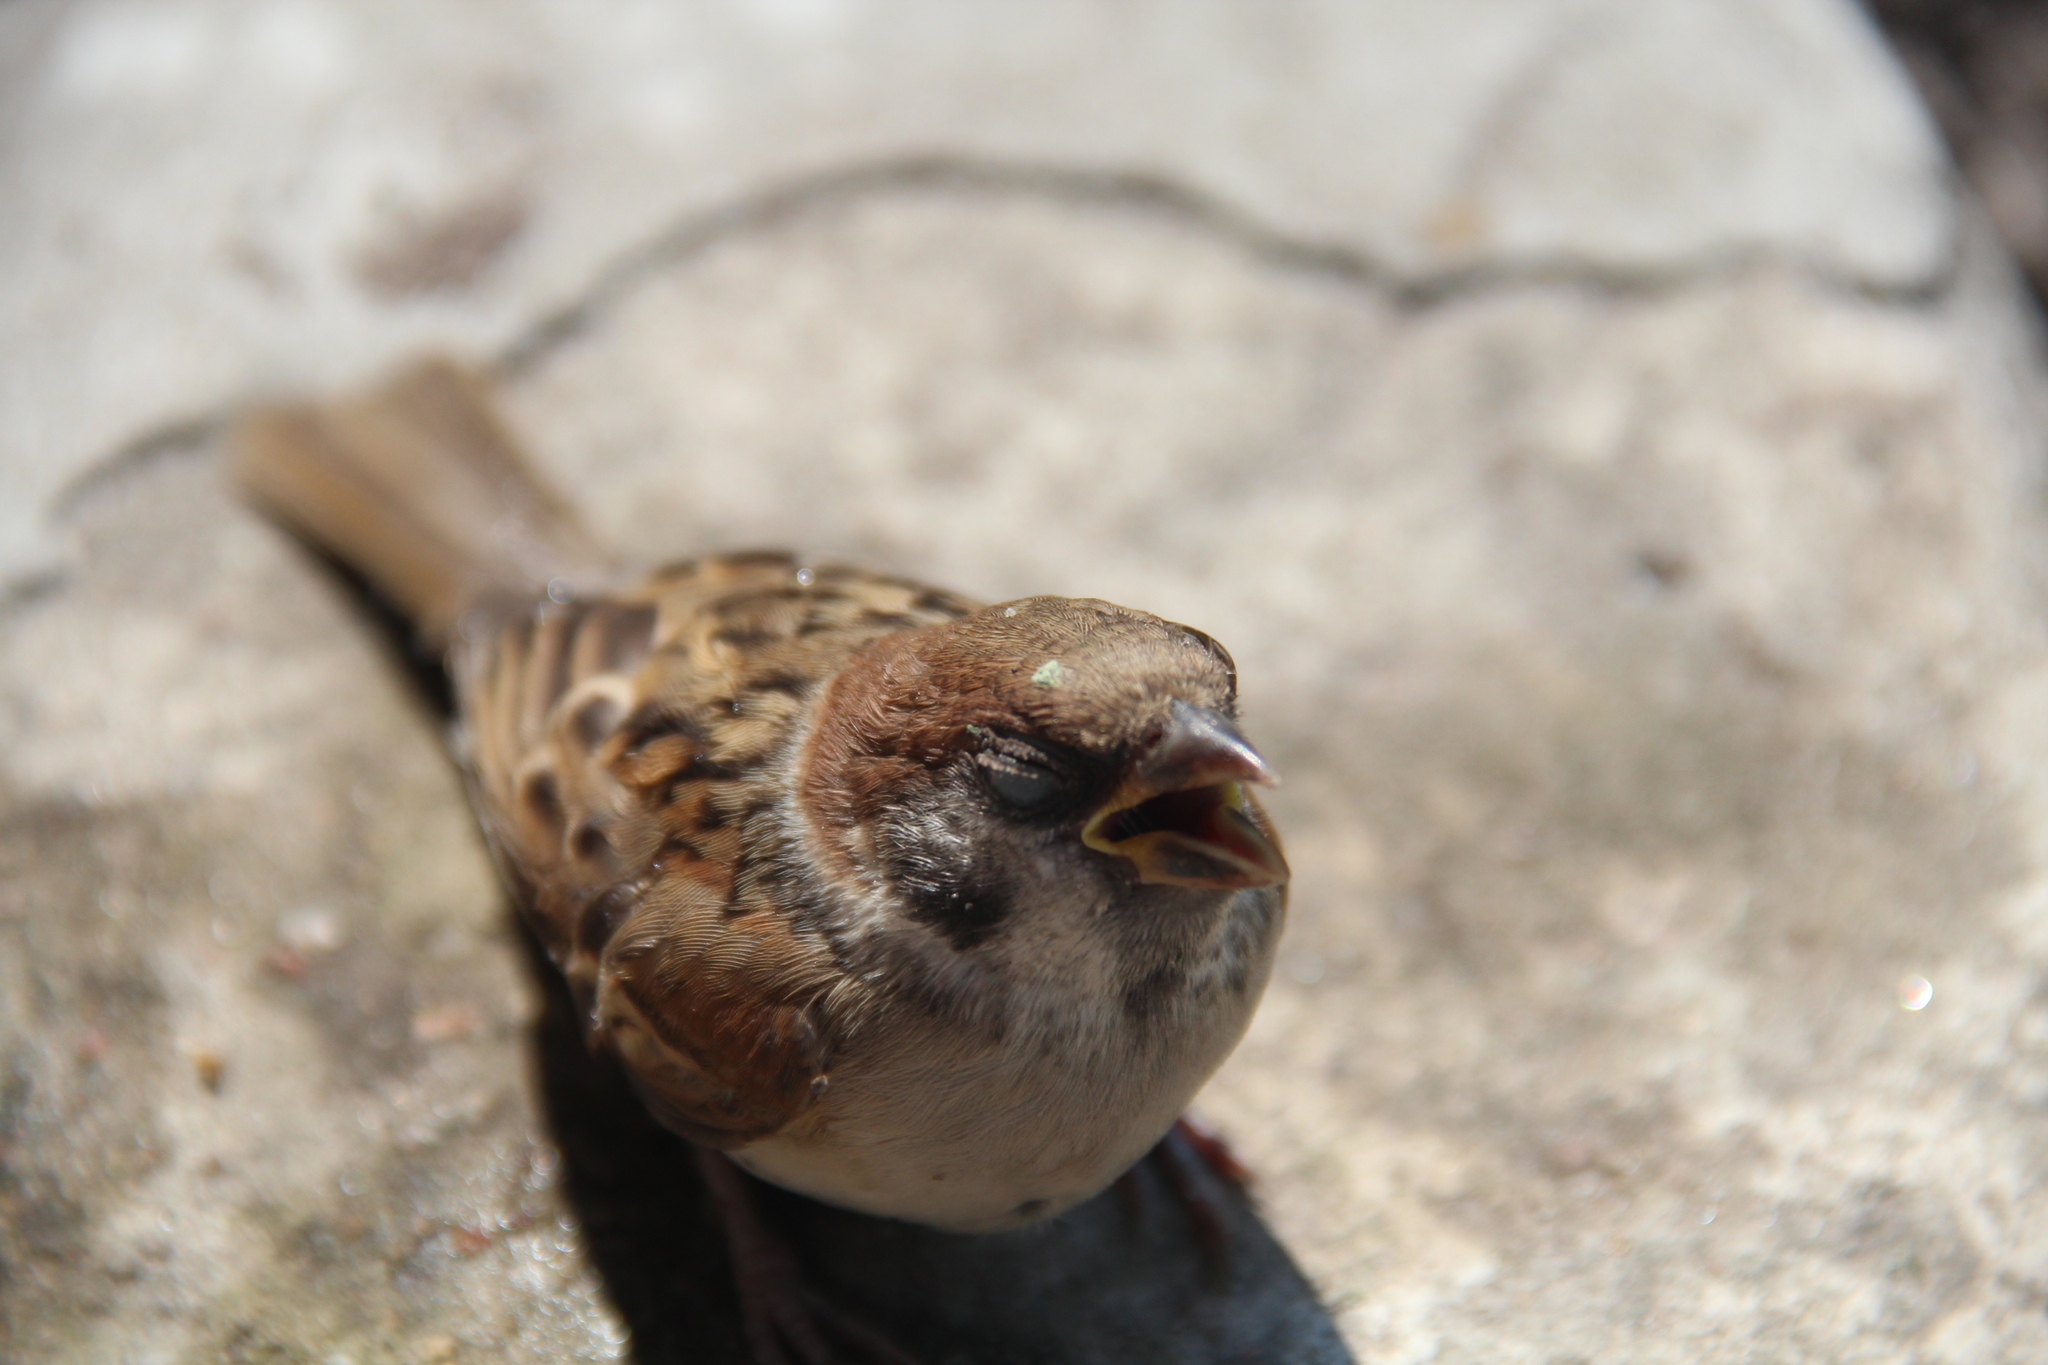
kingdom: Animalia
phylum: Chordata
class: Aves
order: Passeriformes
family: Passeridae
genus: Passer
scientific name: Passer montanus
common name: Eurasian tree sparrow
